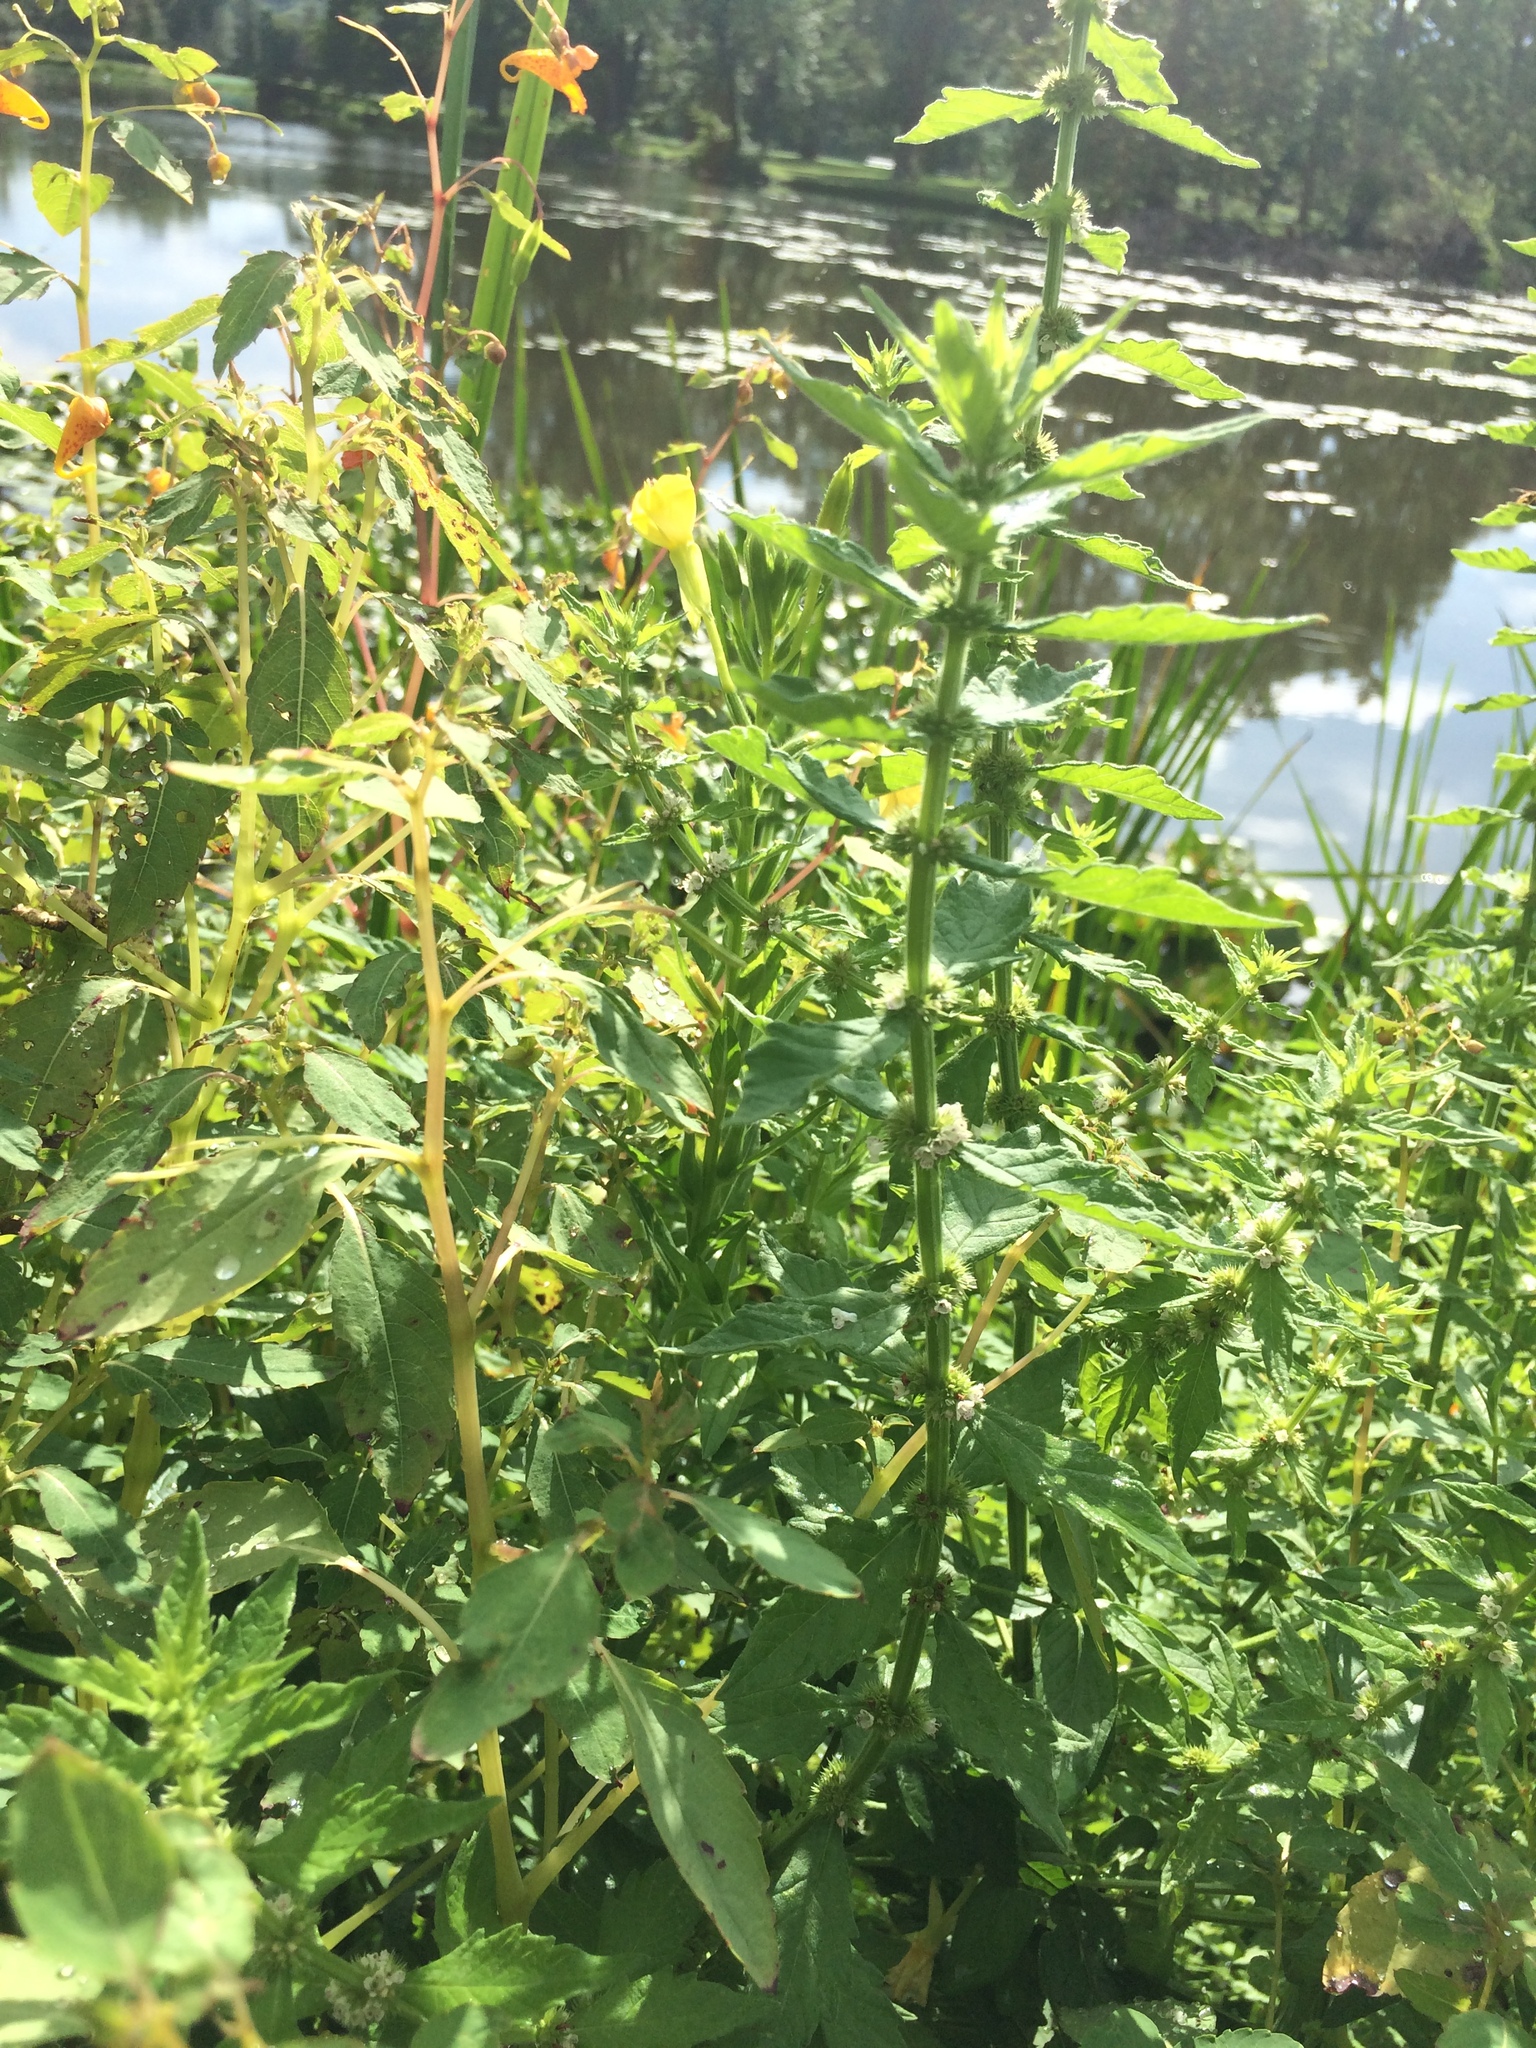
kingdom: Plantae
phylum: Tracheophyta
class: Magnoliopsida
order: Ericales
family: Balsaminaceae
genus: Impatiens
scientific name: Impatiens capensis
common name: Orange balsam
